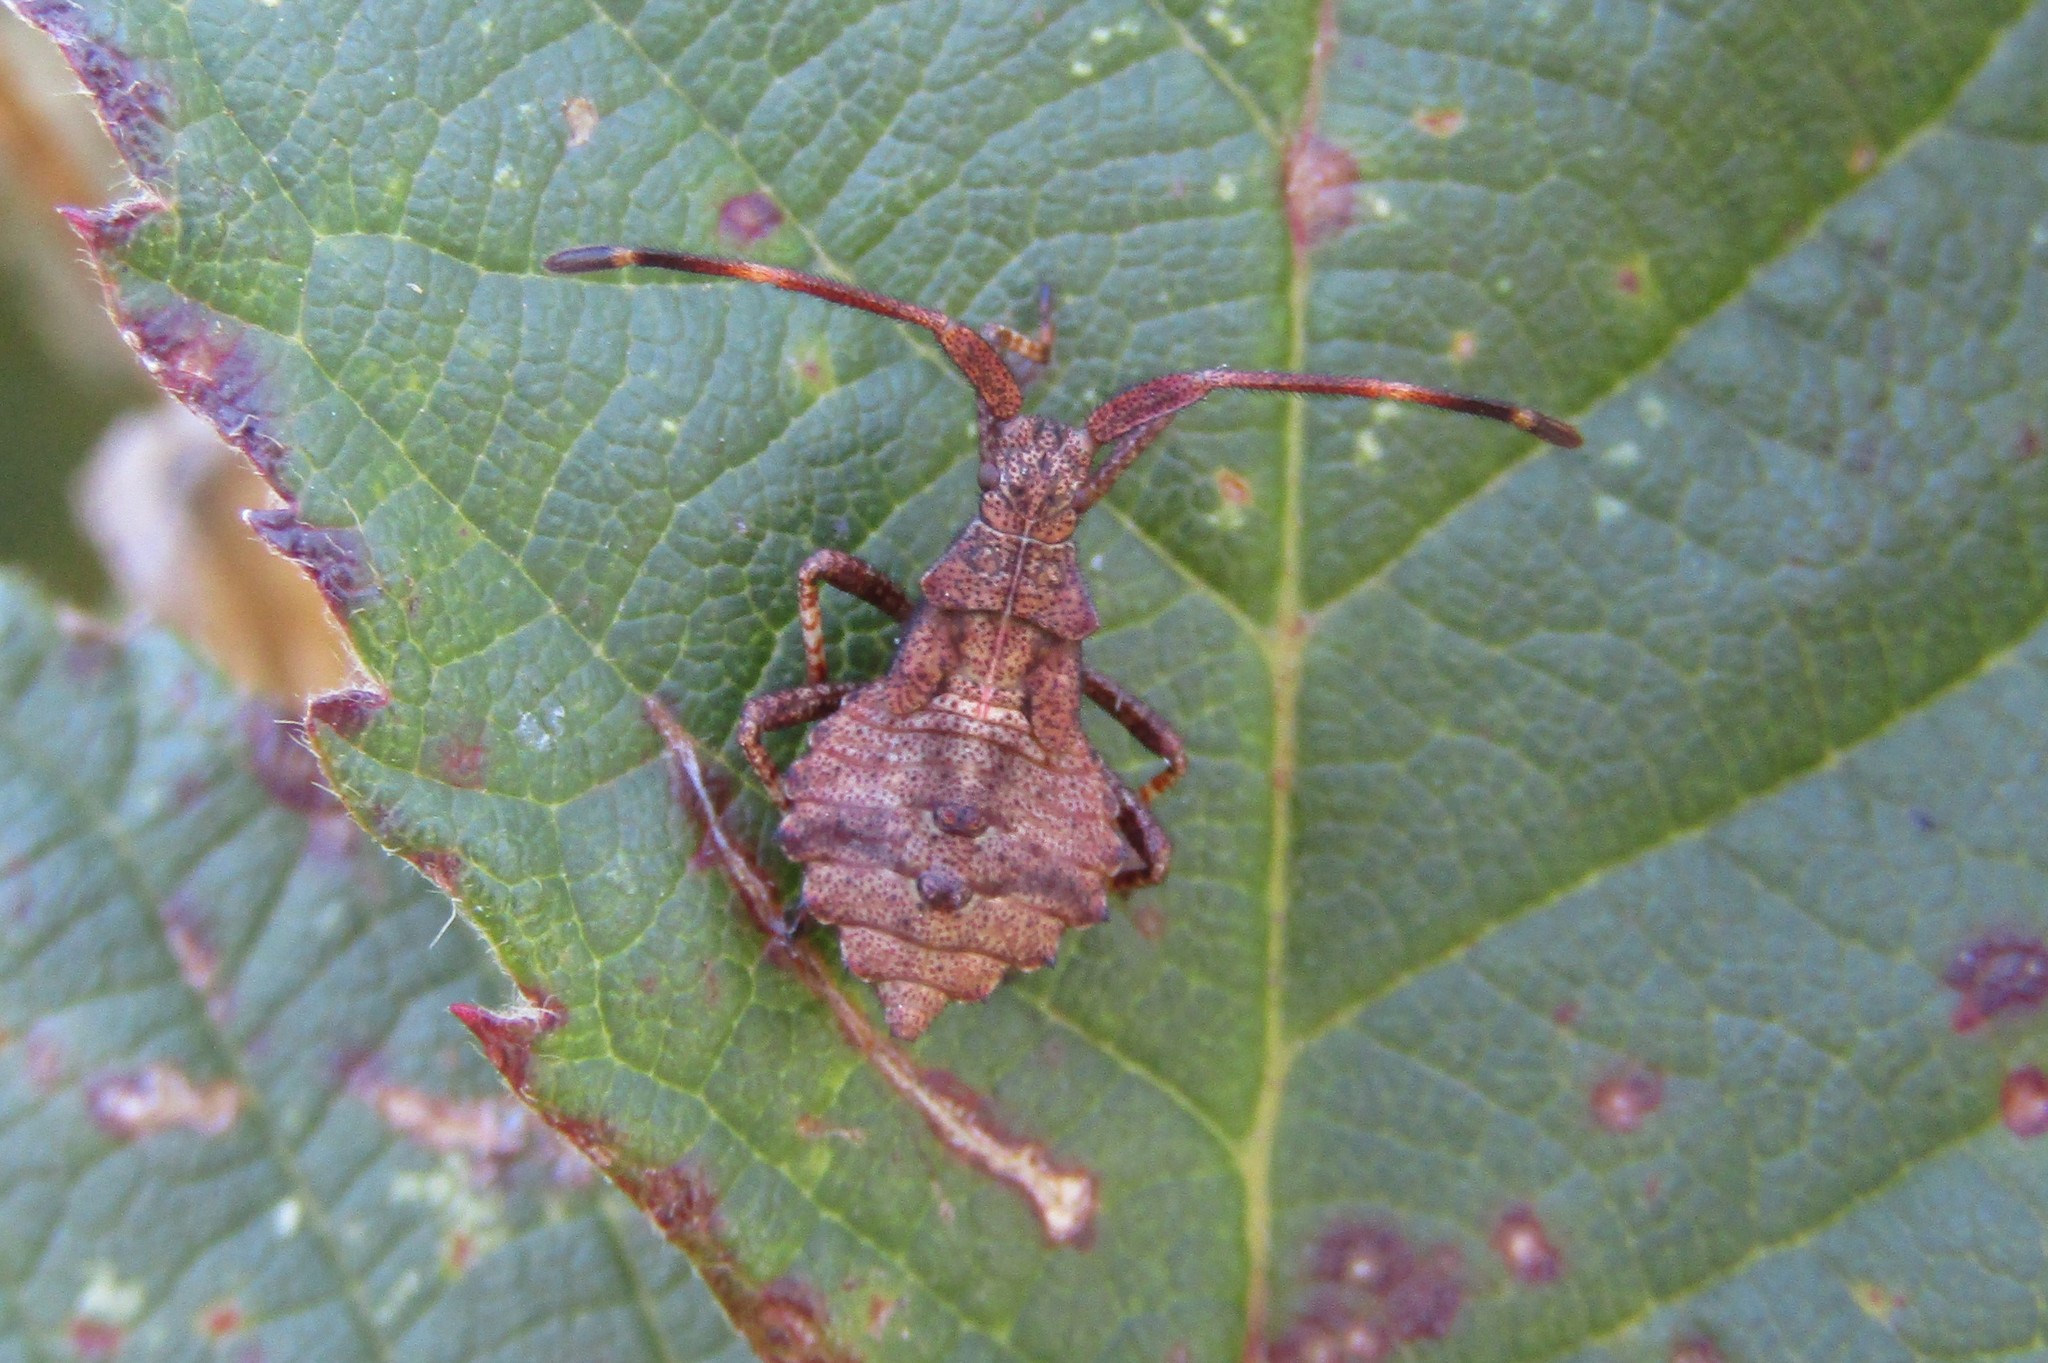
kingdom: Animalia
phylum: Arthropoda
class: Insecta
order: Hemiptera
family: Coreidae
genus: Coreus
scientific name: Coreus marginatus
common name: Dock bug
